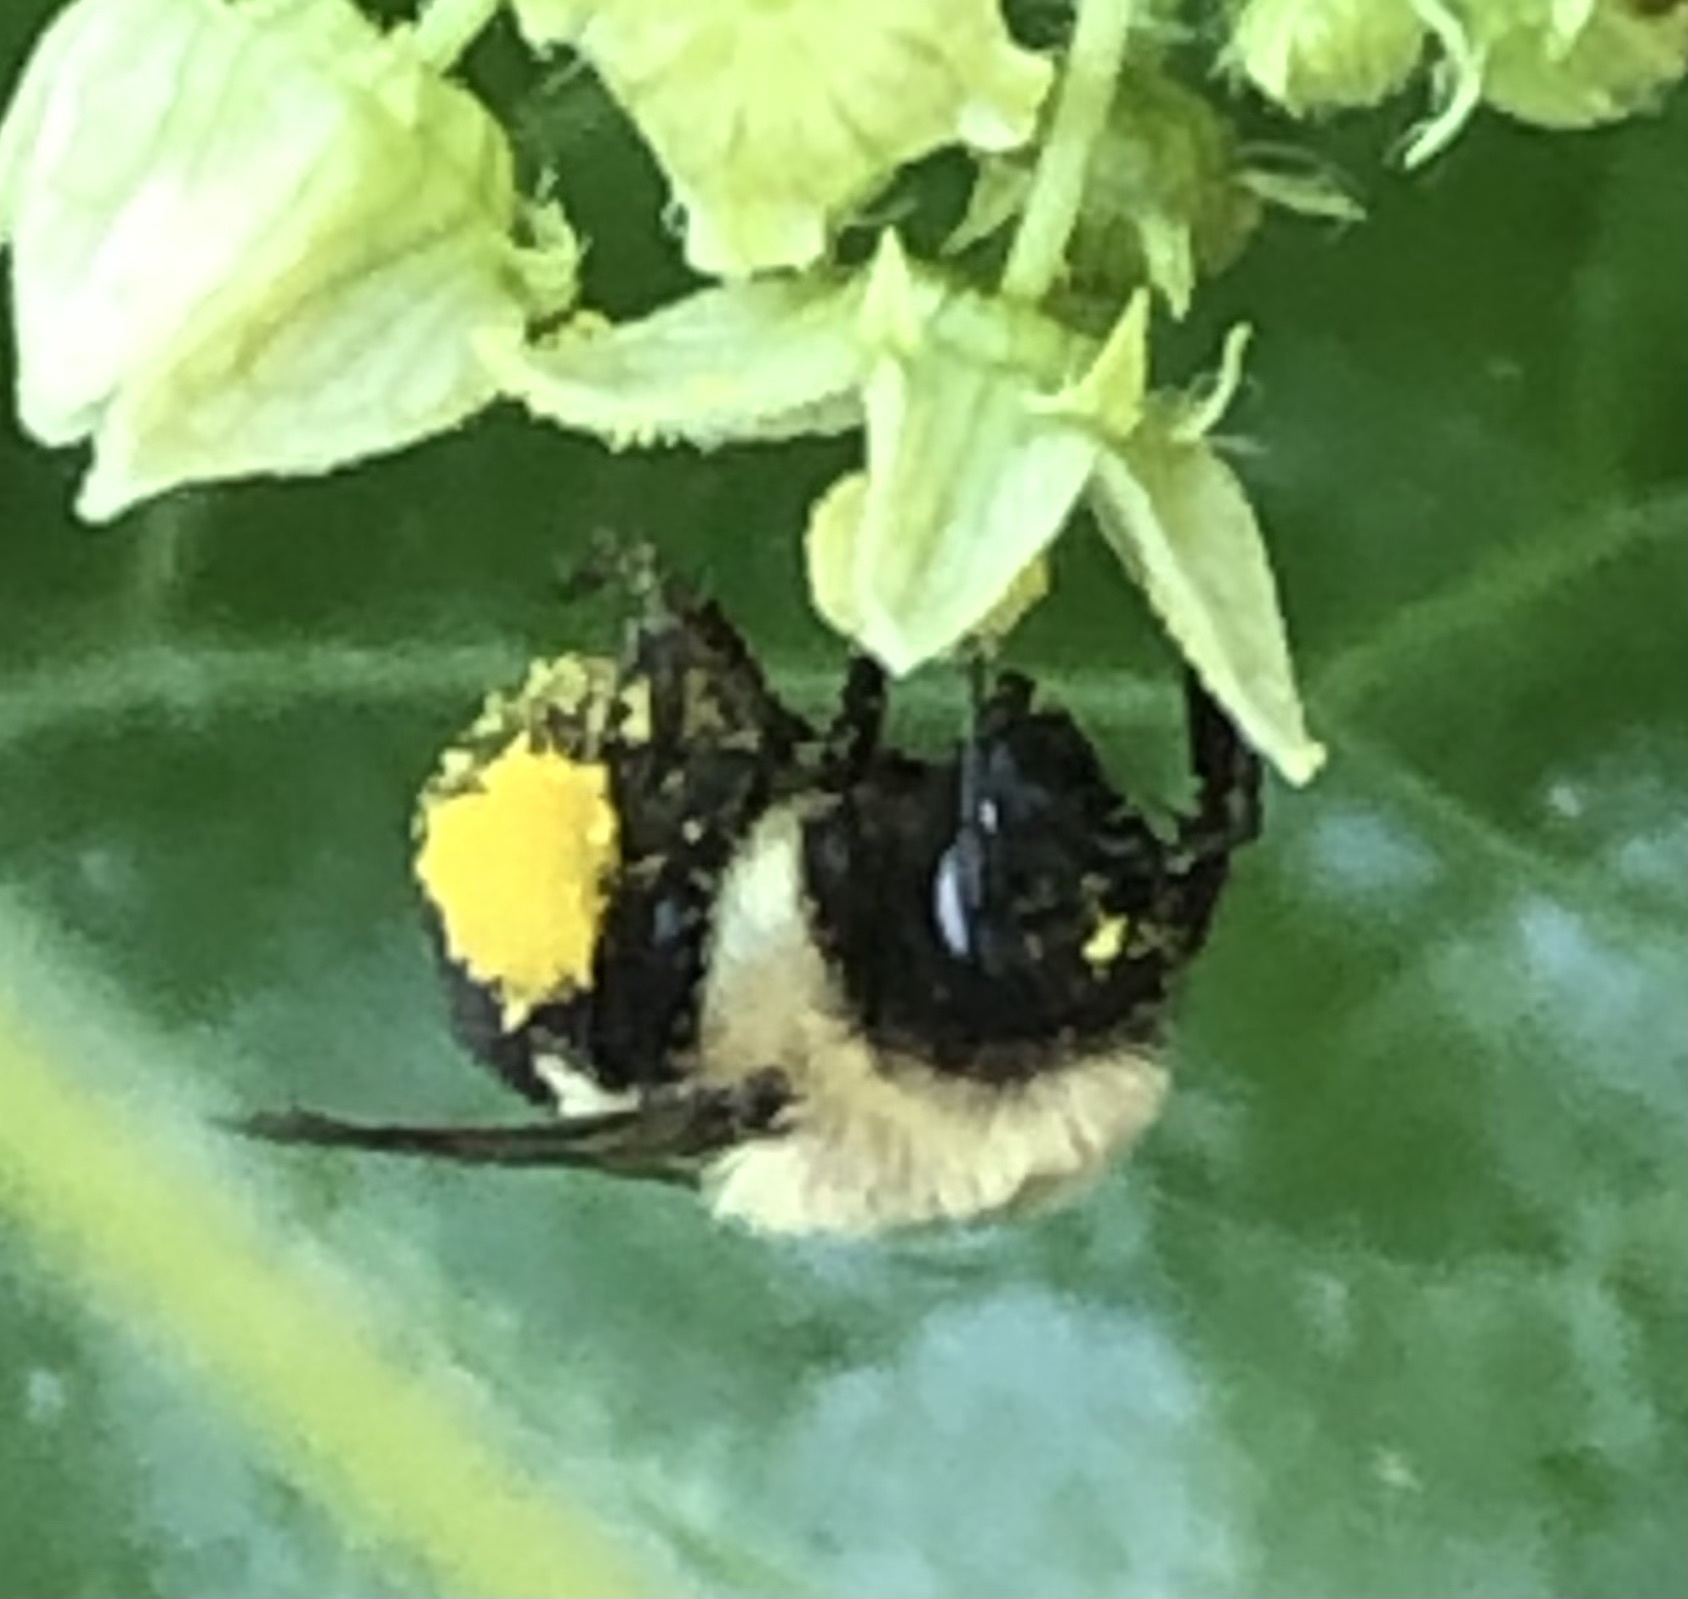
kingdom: Animalia
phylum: Arthropoda
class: Insecta
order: Hymenoptera
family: Apidae
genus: Bombus
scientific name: Bombus impatiens
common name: Common eastern bumble bee
